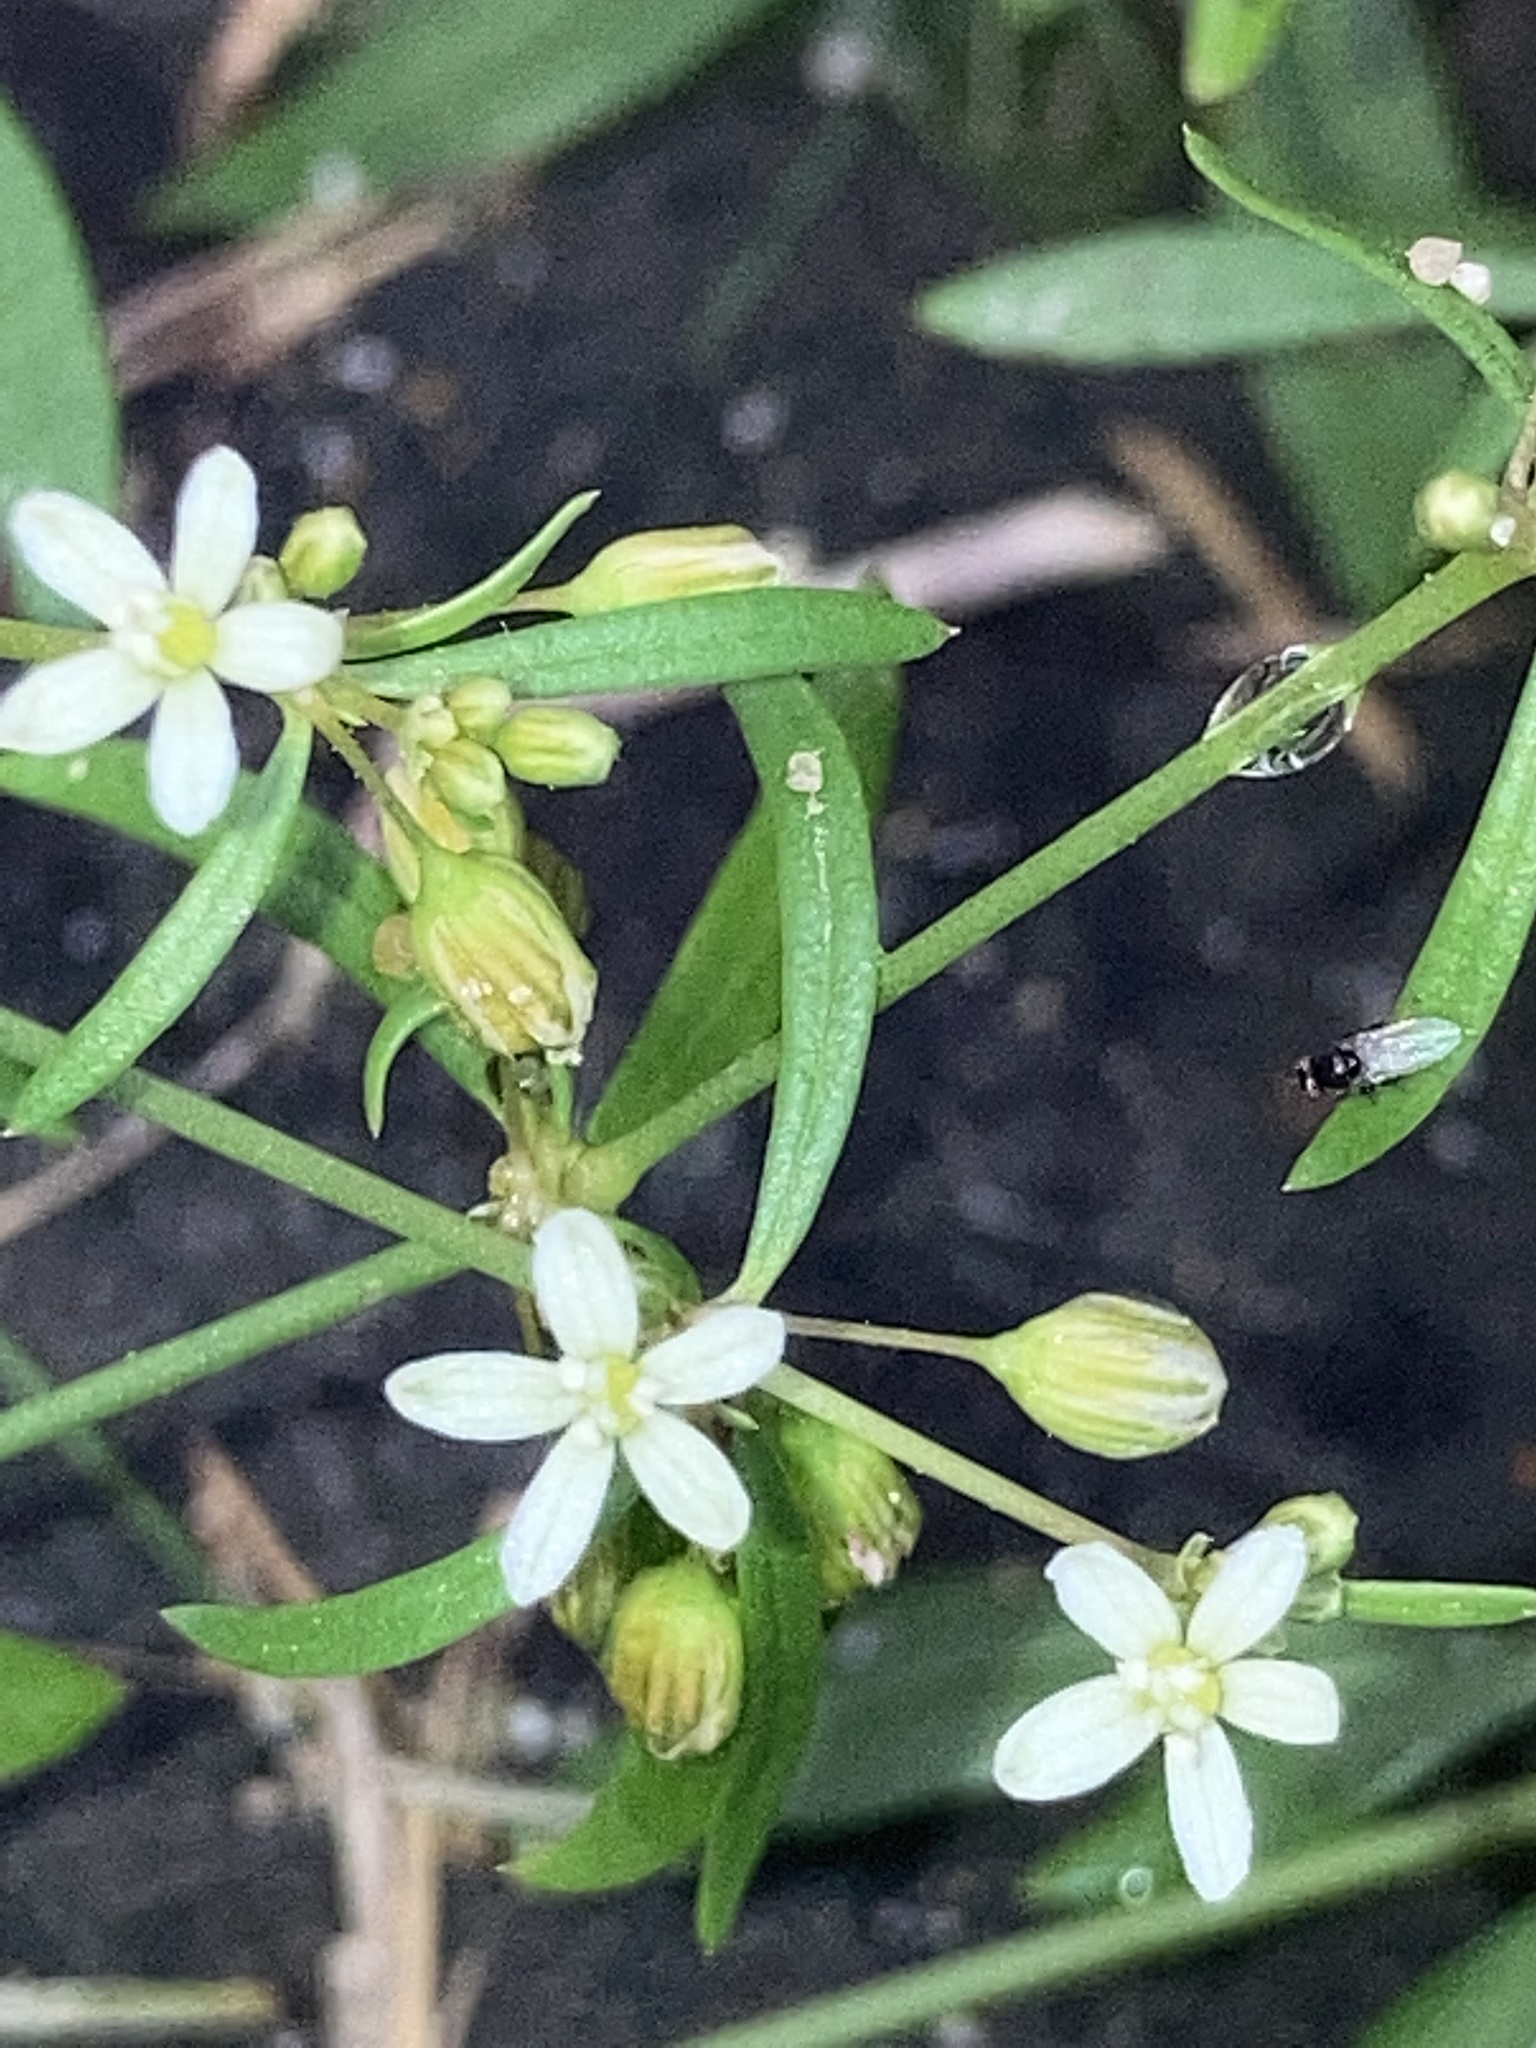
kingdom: Plantae
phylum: Tracheophyta
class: Magnoliopsida
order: Caryophyllales
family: Molluginaceae
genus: Mollugo
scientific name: Mollugo verticillata
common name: Green carpetweed
